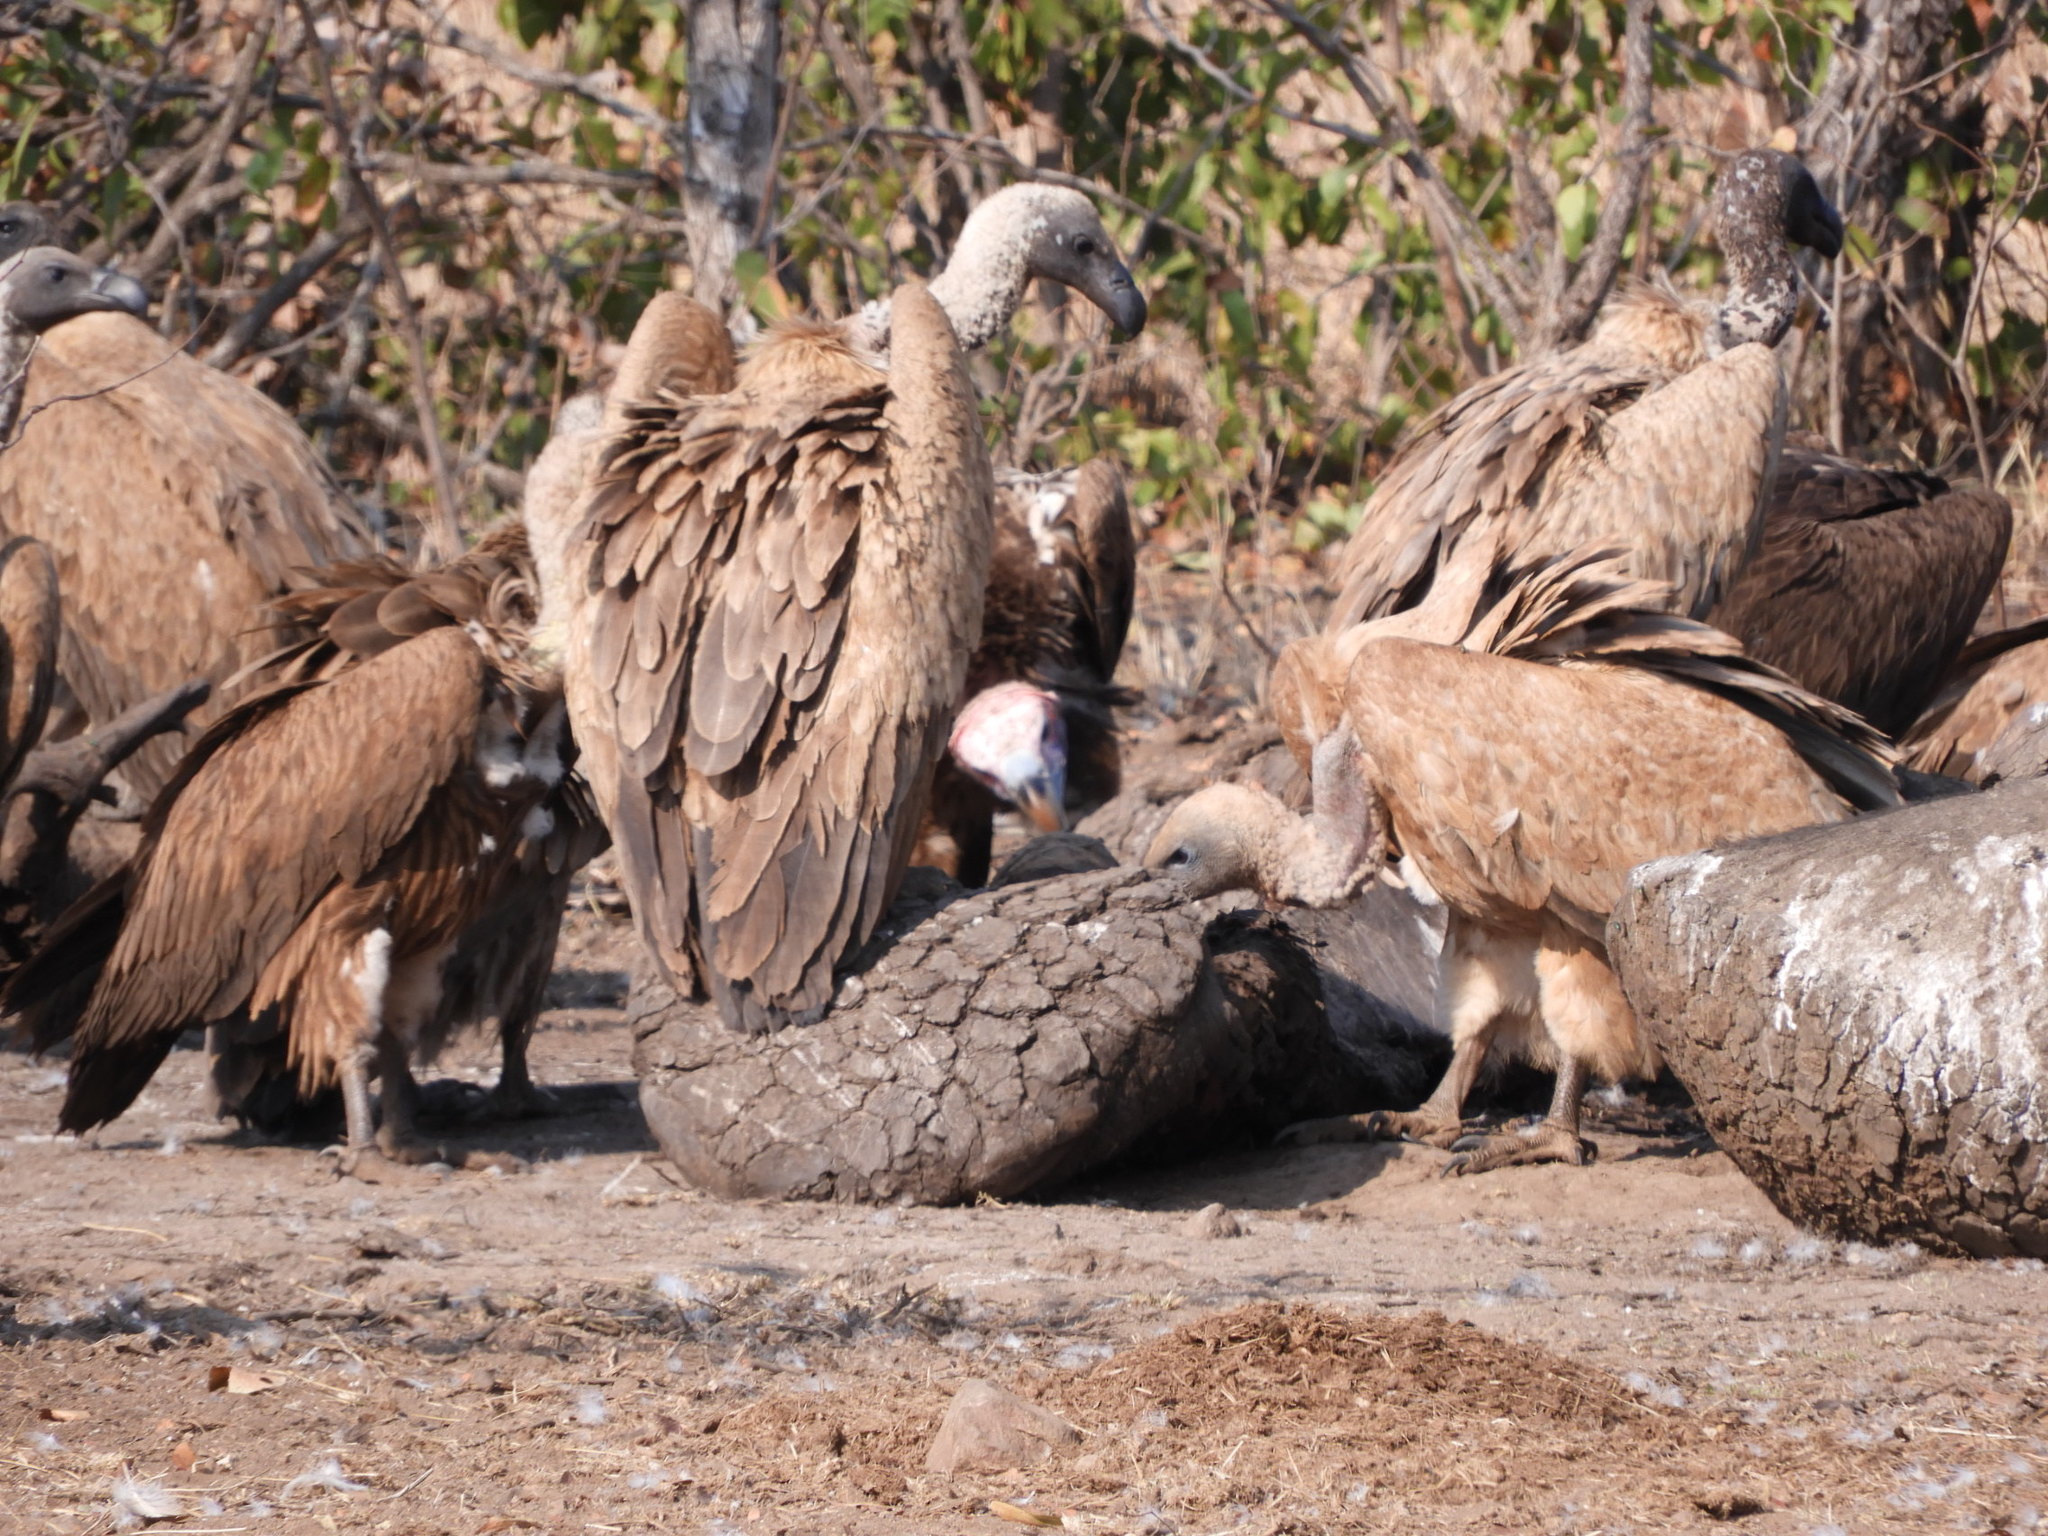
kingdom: Animalia
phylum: Chordata
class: Aves
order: Accipitriformes
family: Accipitridae
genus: Gyps
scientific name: Gyps africanus
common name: White-backed vulture
